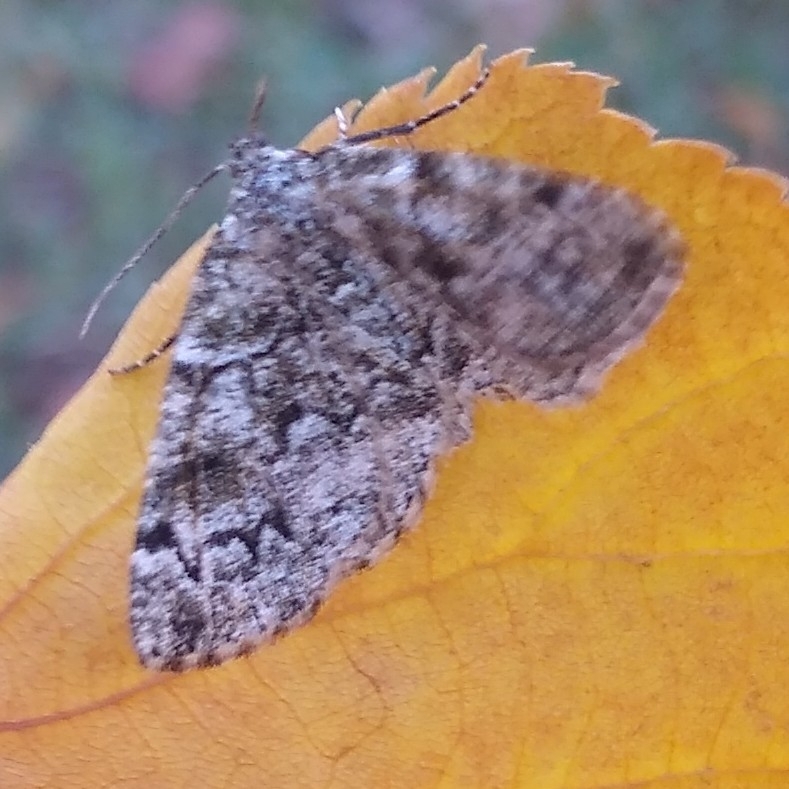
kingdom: Animalia
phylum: Arthropoda
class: Insecta
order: Lepidoptera
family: Geometridae
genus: Cleorodes
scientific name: Cleorodes lichenaria
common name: Brussels lace
